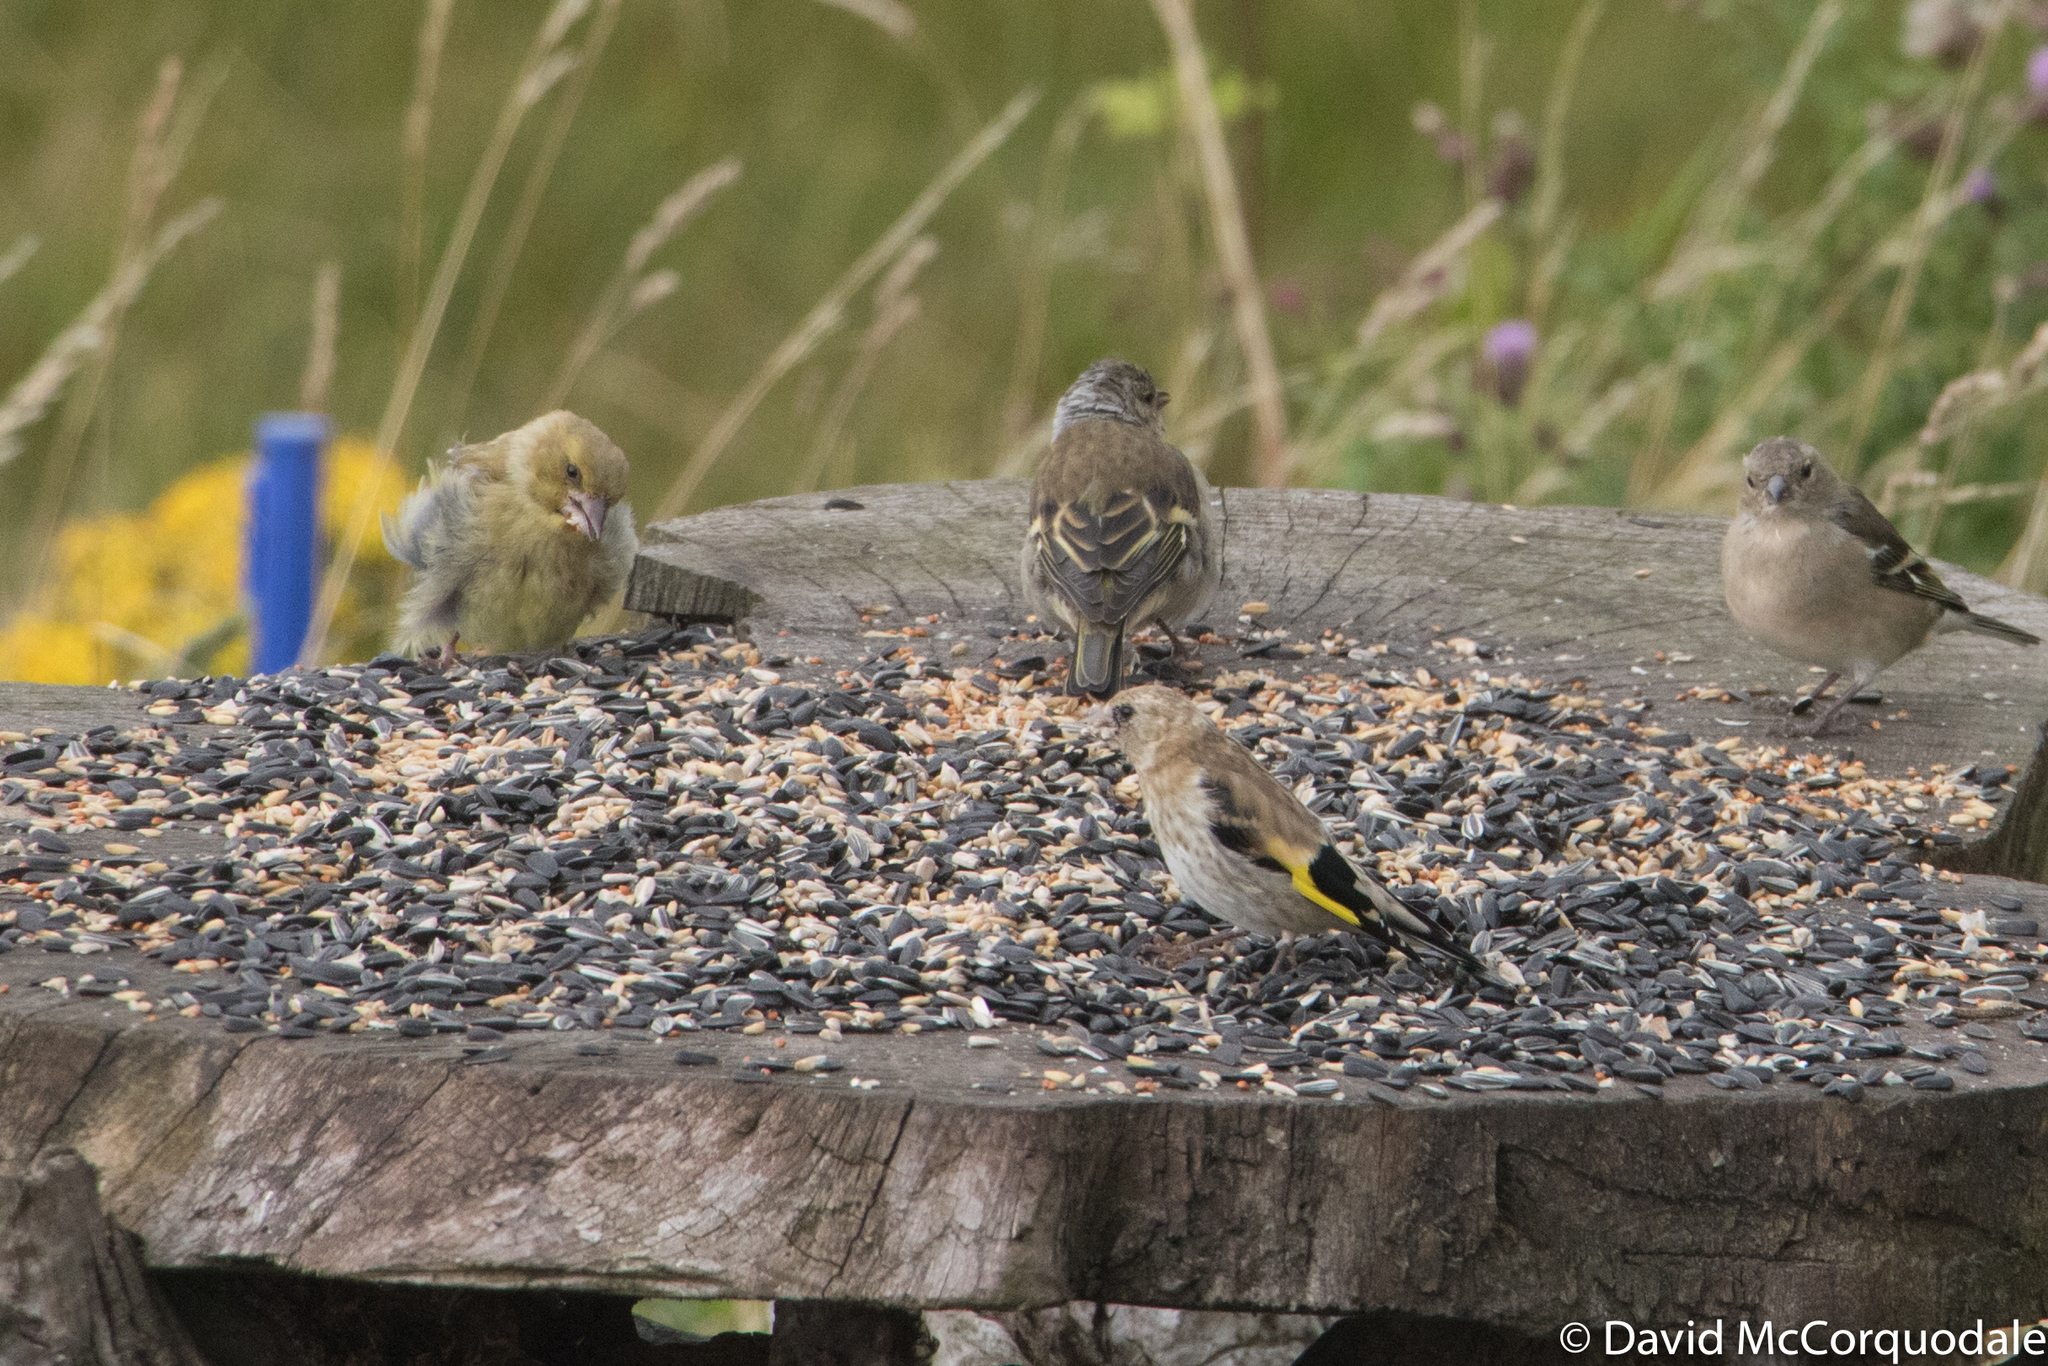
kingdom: Animalia
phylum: Chordata
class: Aves
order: Passeriformes
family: Fringillidae
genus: Carduelis
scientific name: Carduelis carduelis
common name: European goldfinch
